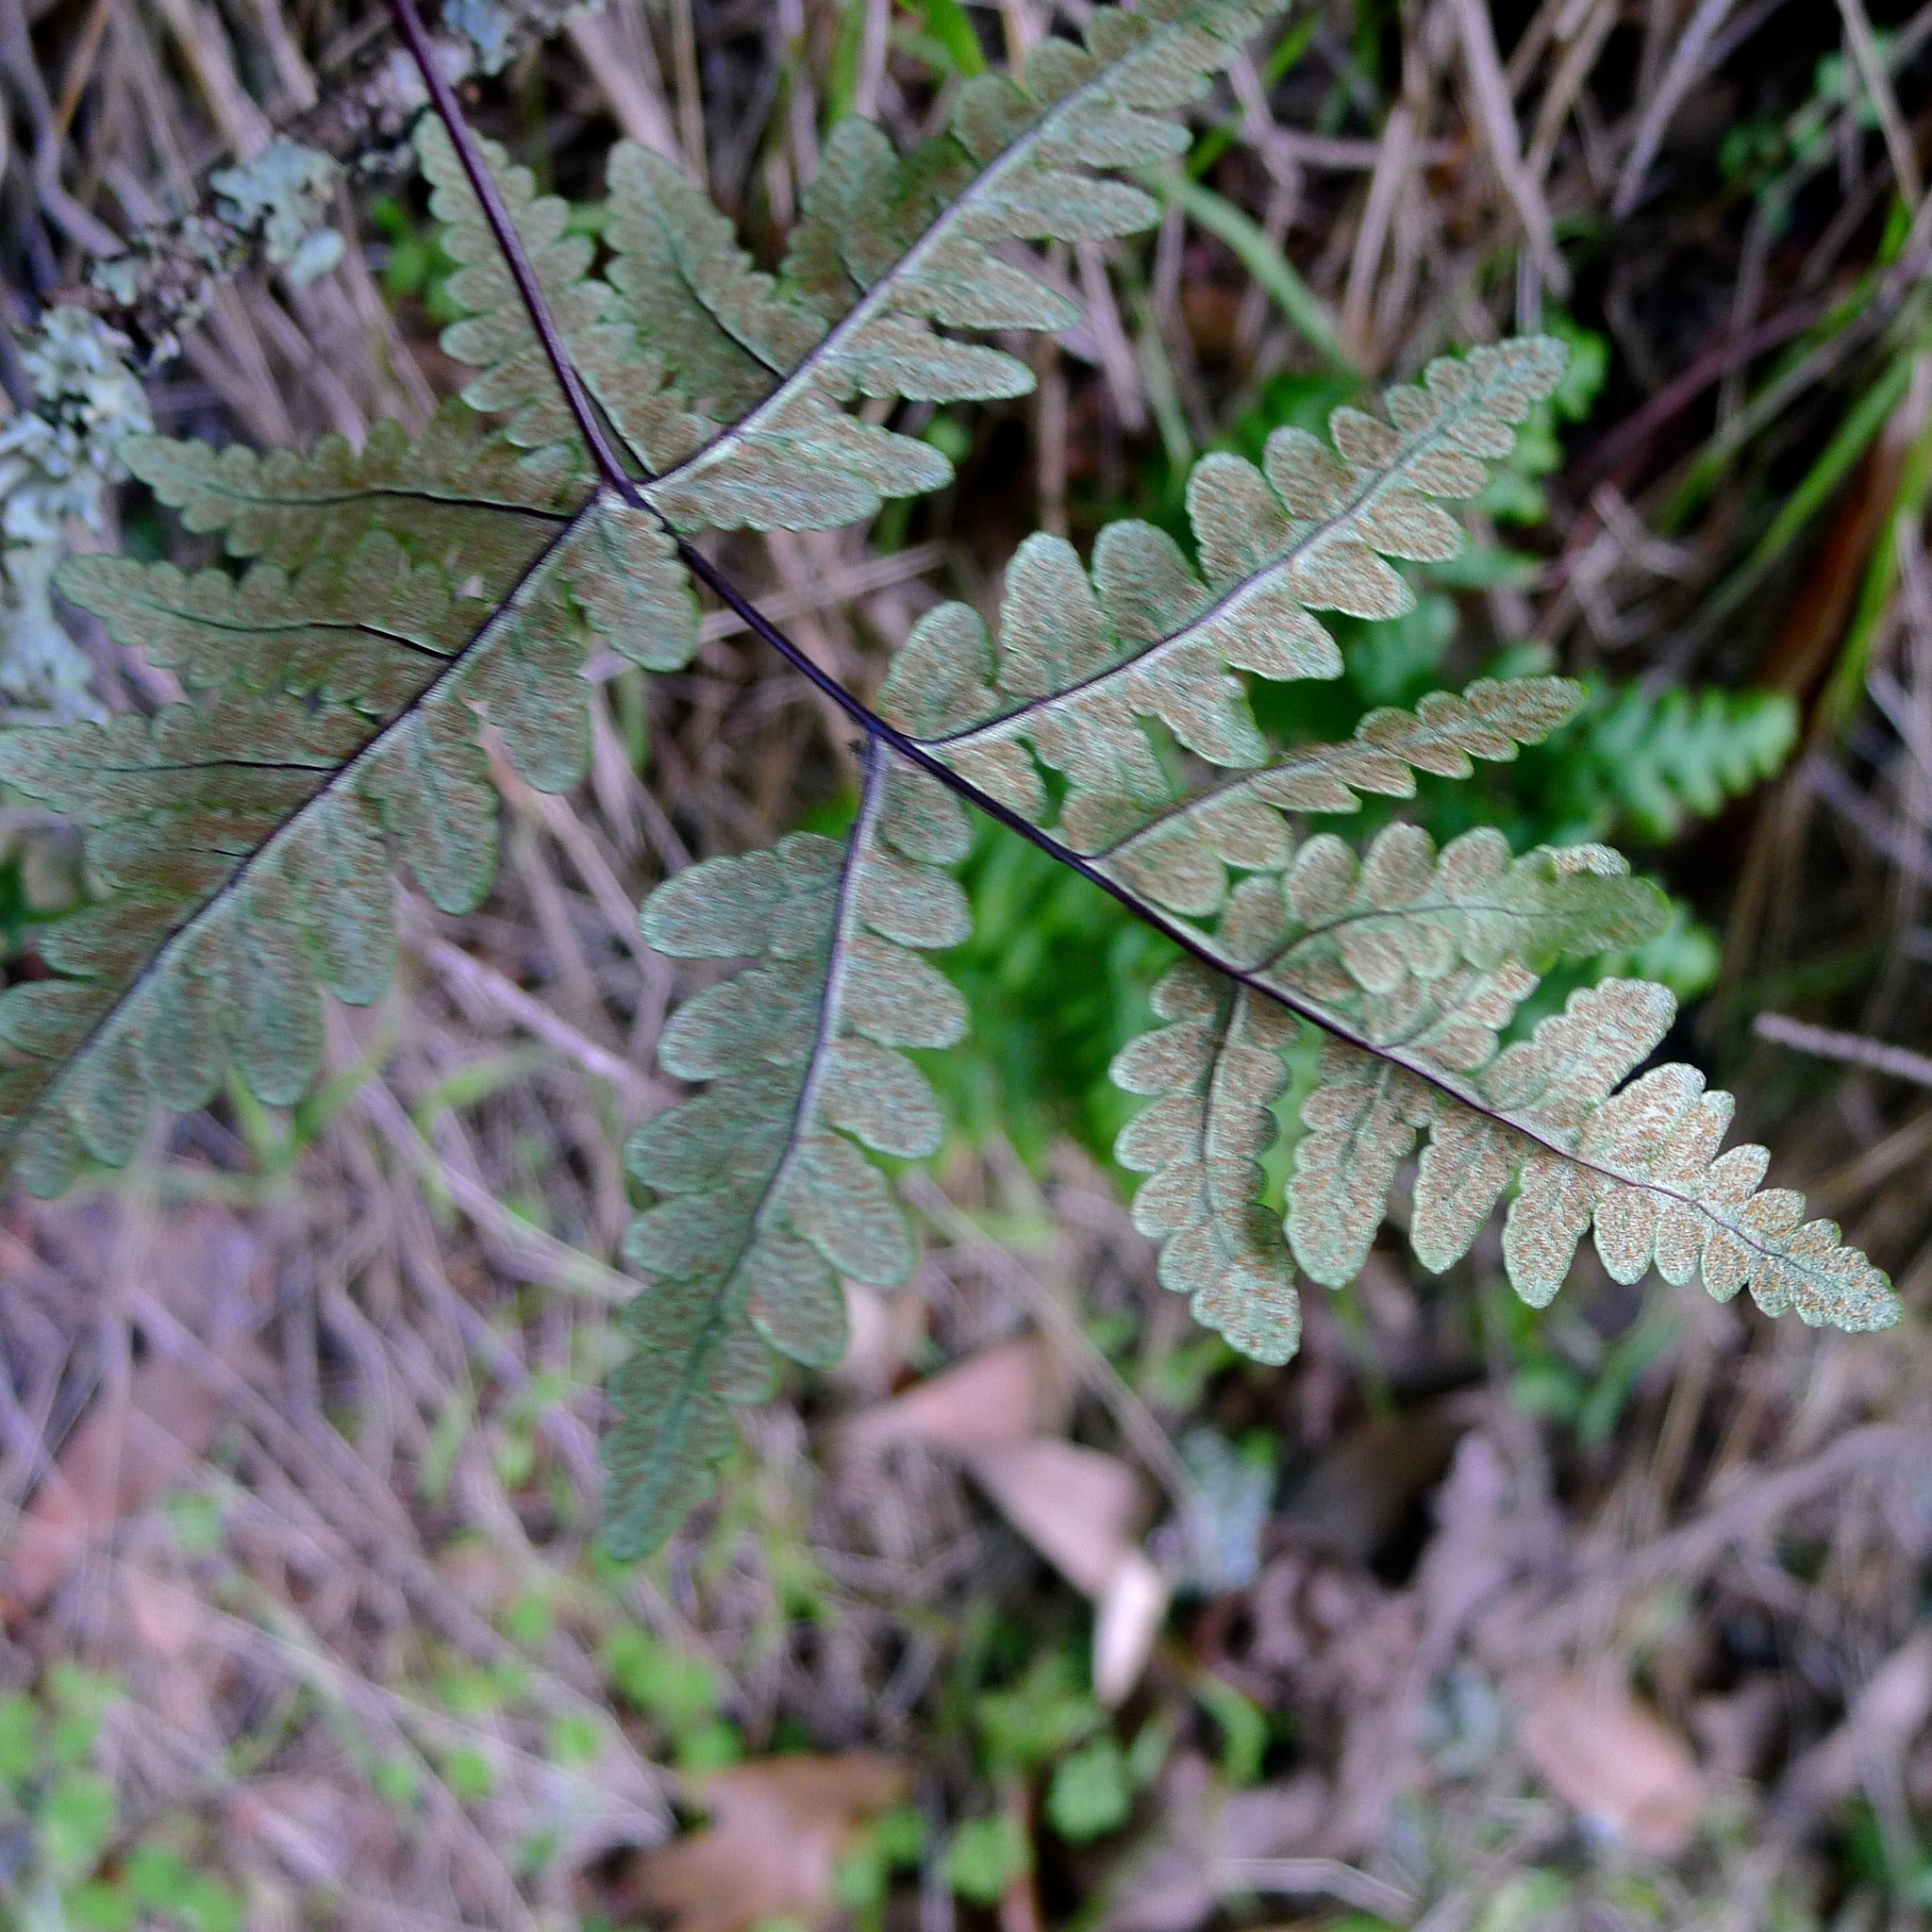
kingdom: Plantae
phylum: Tracheophyta
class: Polypodiopsida
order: Polypodiales
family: Pteridaceae
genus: Pentagramma
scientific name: Pentagramma triangularis
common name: Gold fern
